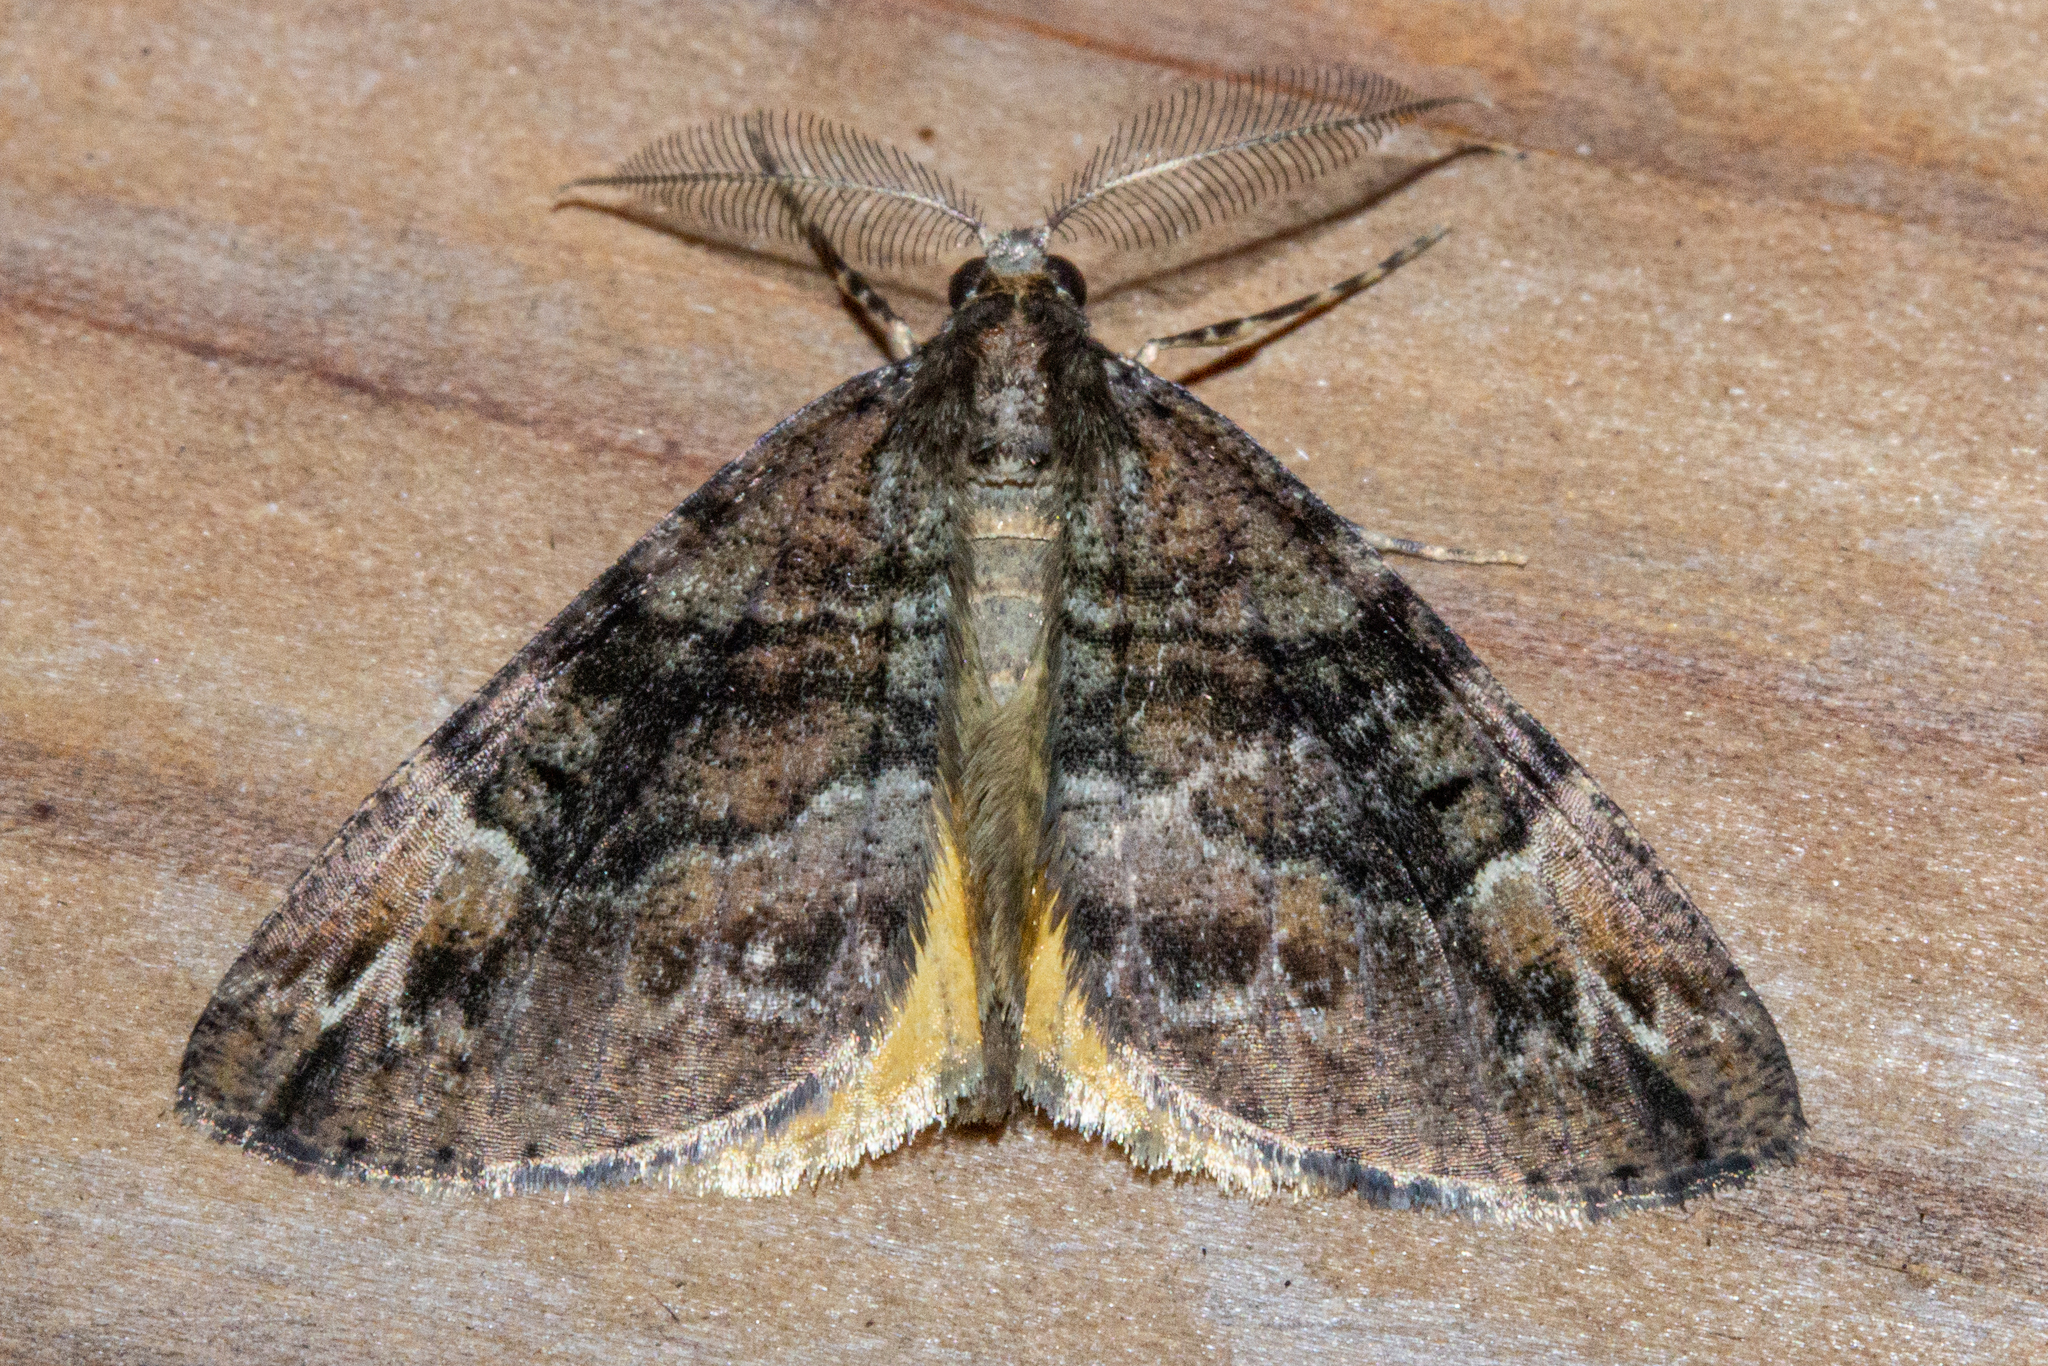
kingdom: Animalia
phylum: Arthropoda
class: Insecta
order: Lepidoptera
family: Geometridae
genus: Pseudocoremia
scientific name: Pseudocoremia productata
